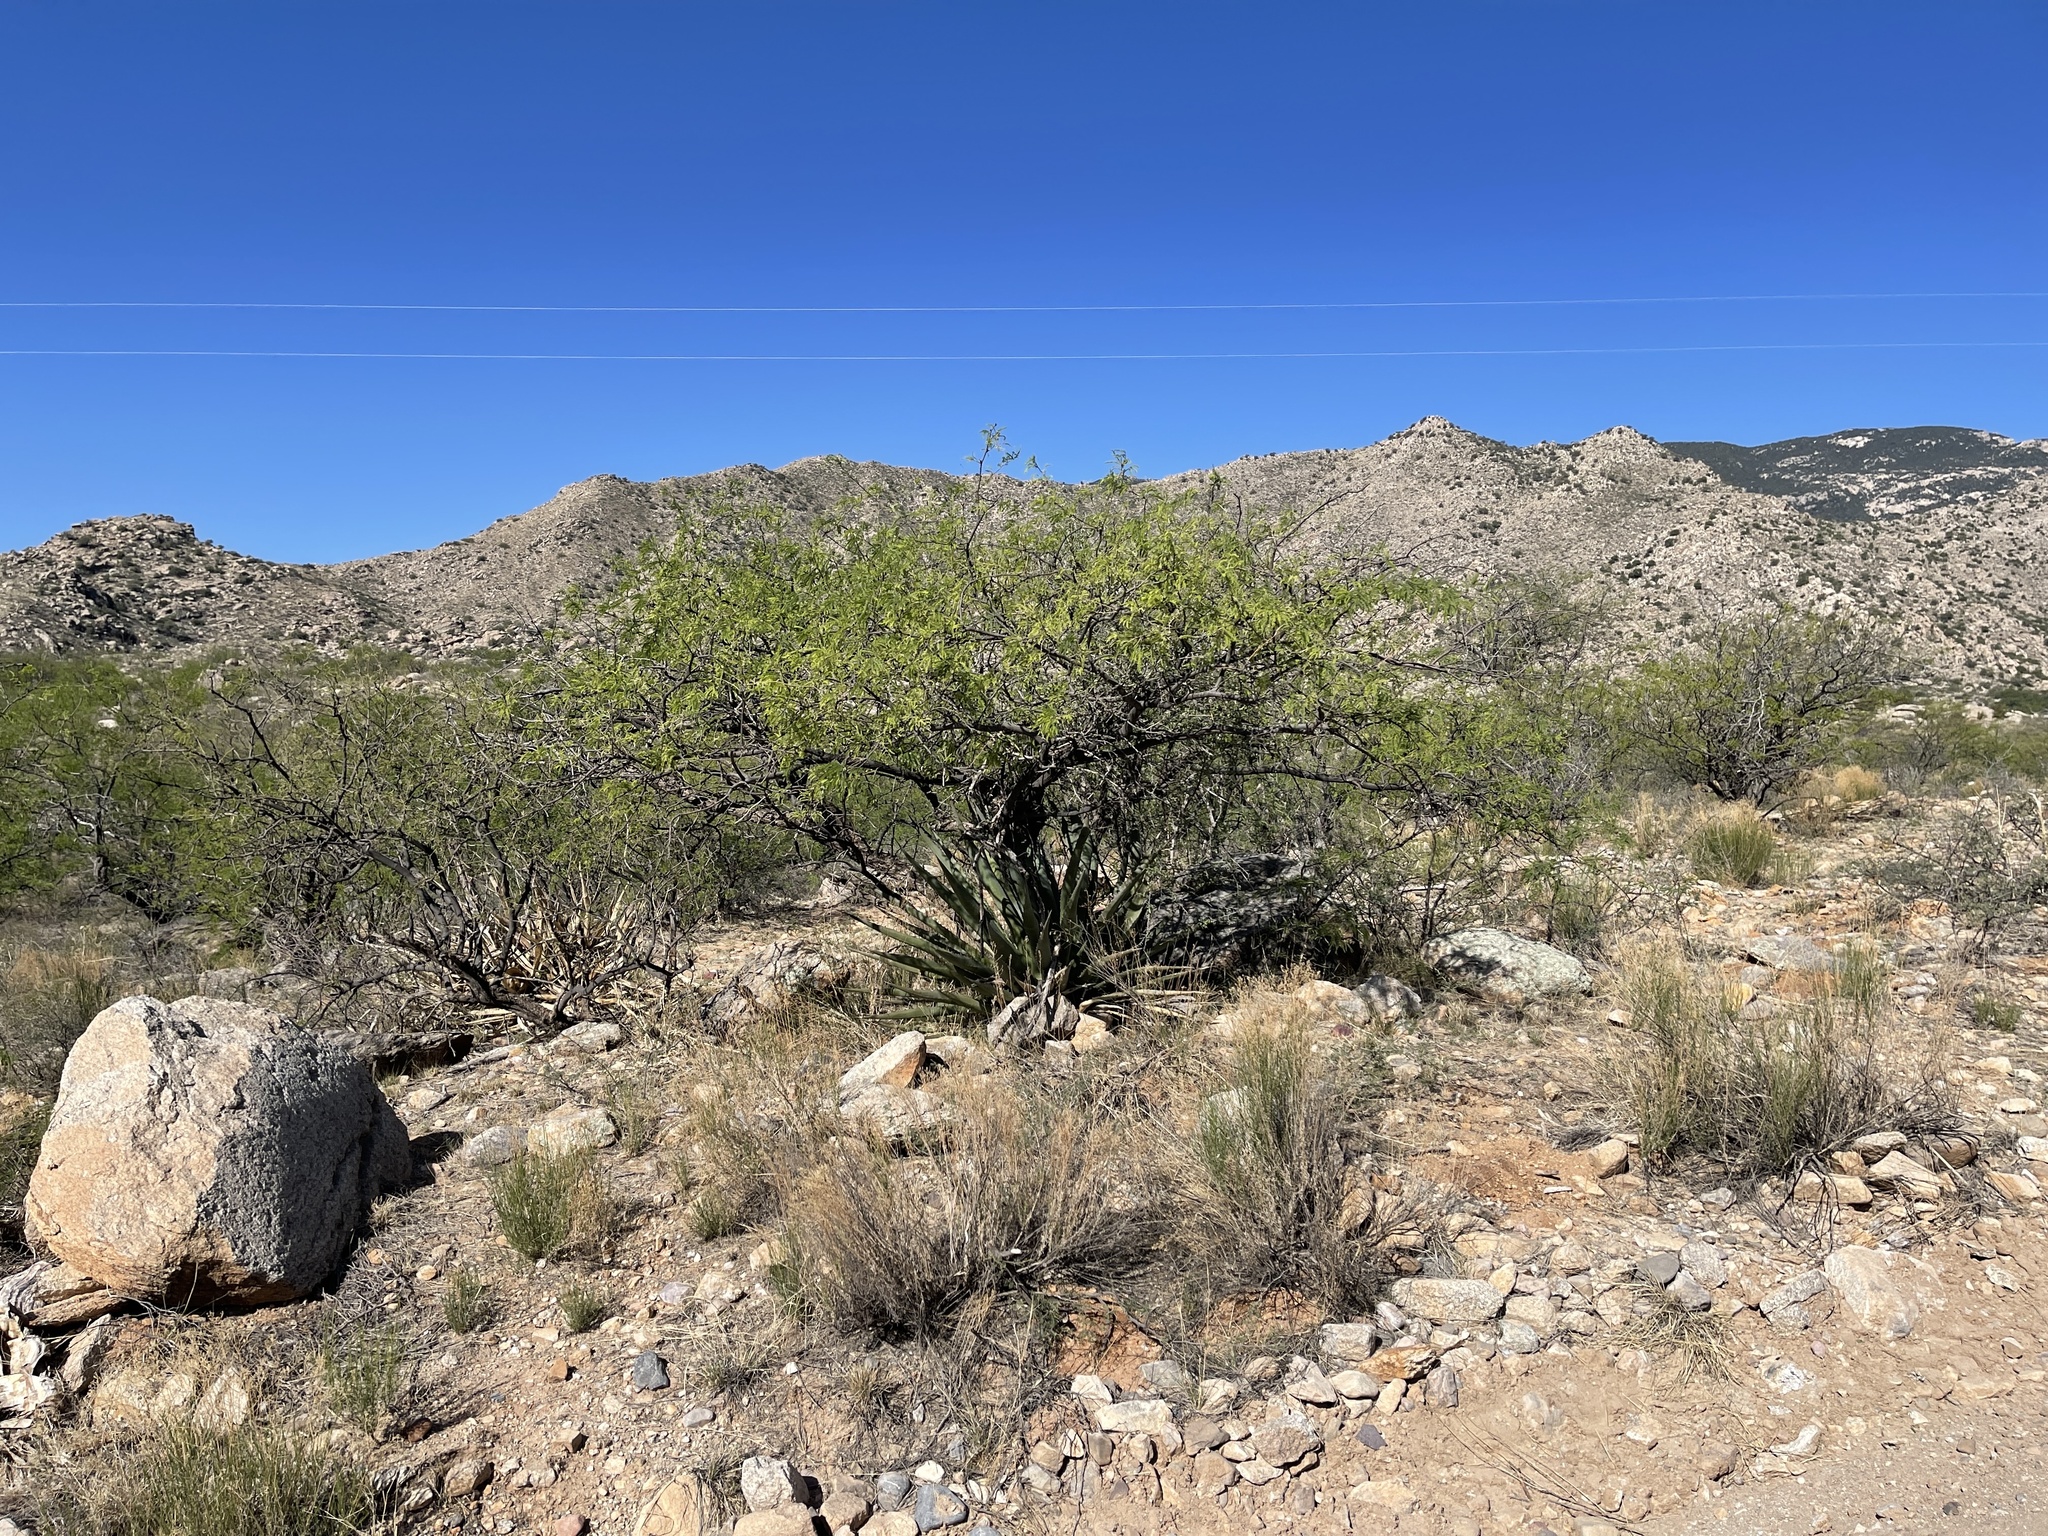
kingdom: Plantae
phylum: Tracheophyta
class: Magnoliopsida
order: Fabales
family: Fabaceae
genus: Prosopis
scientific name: Prosopis velutina
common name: Velvet mesquite
